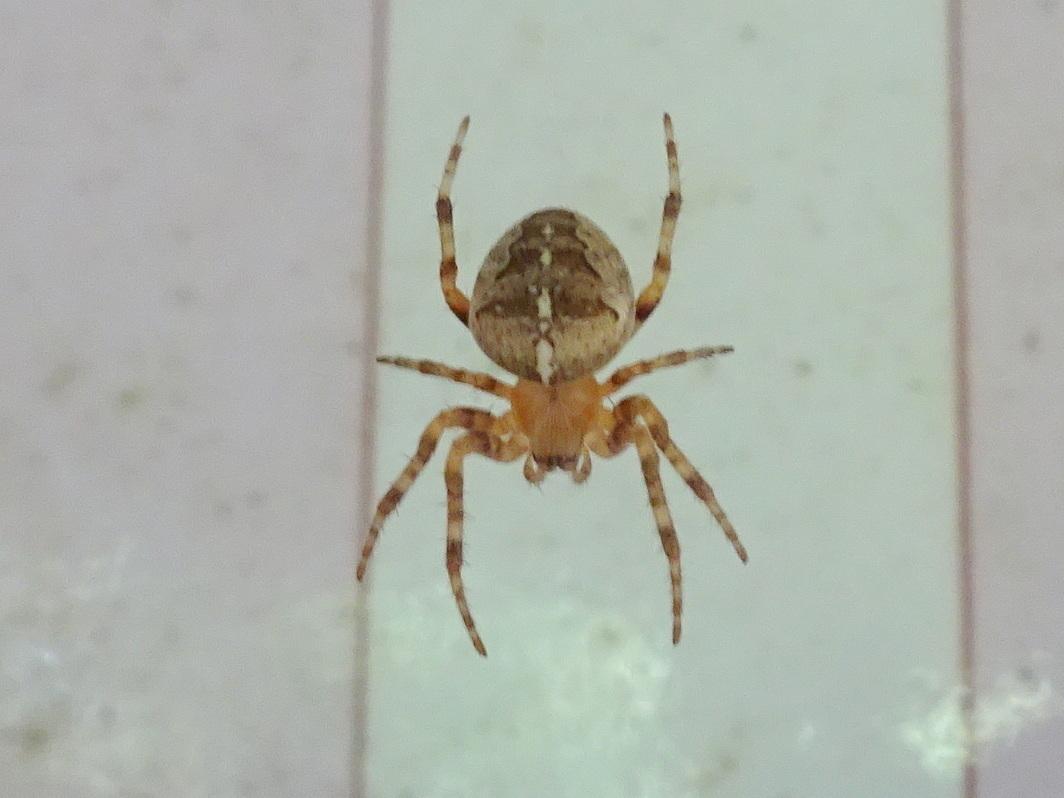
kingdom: Animalia
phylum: Arthropoda
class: Arachnida
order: Araneae
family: Araneidae
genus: Araneus
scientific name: Araneus diadematus
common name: Cross orbweaver
